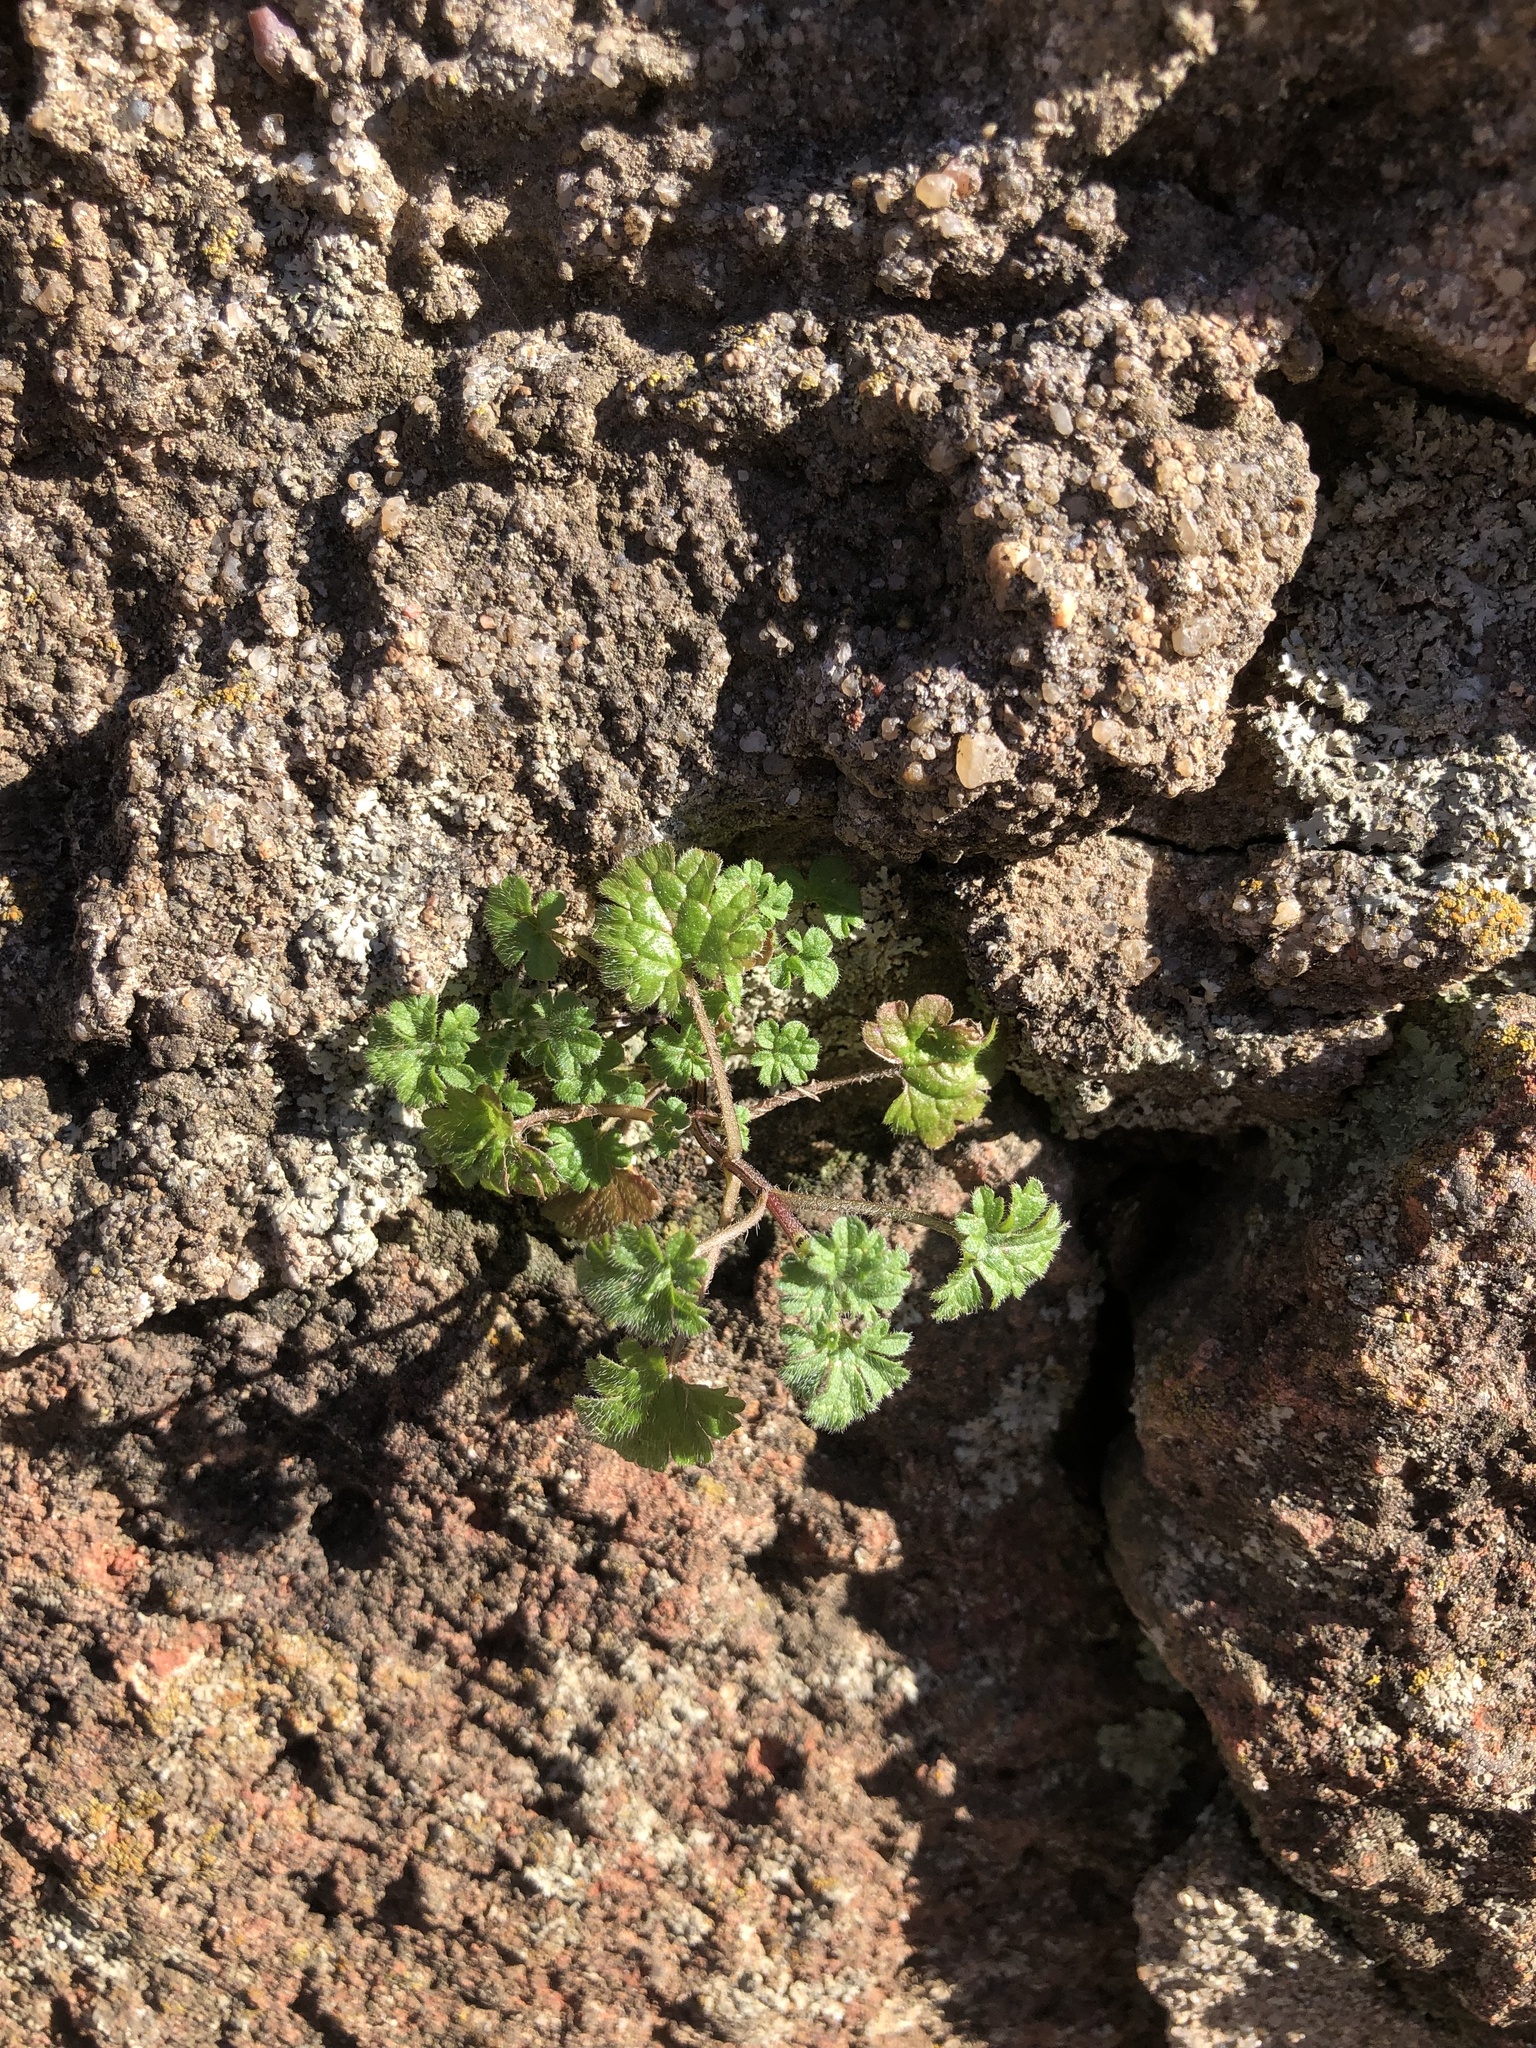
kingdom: Plantae
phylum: Tracheophyta
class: Magnoliopsida
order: Lamiales
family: Lamiaceae
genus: Lamium
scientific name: Lamium amplexicaule
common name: Henbit dead-nettle
